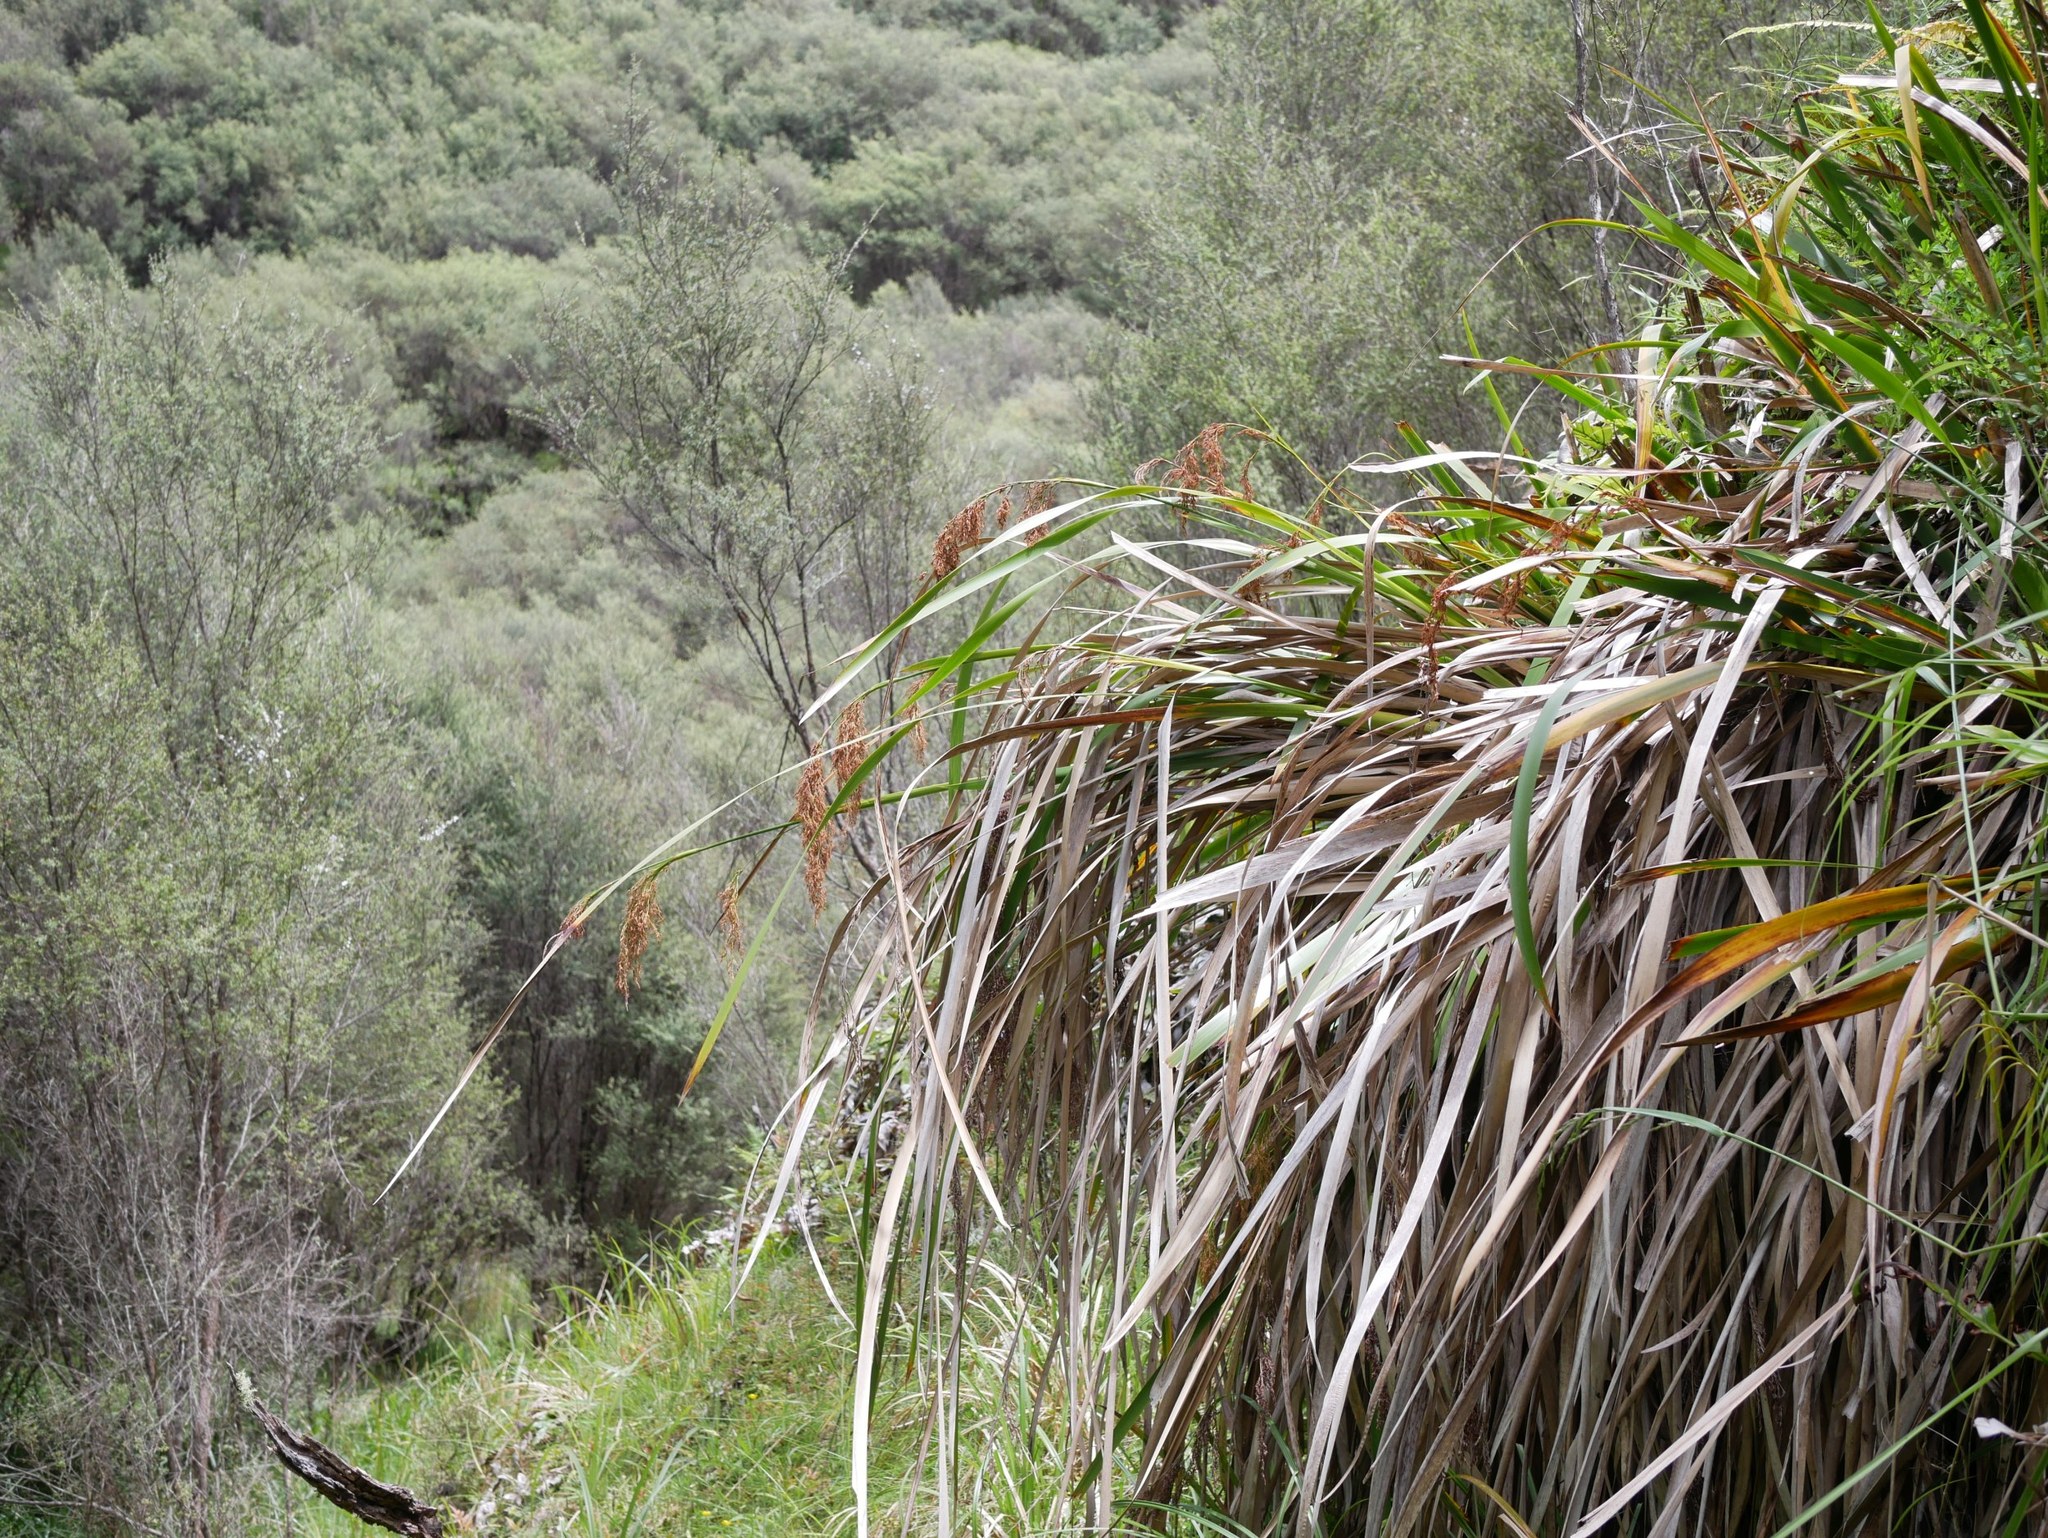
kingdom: Plantae
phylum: Tracheophyta
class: Liliopsida
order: Poales
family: Cyperaceae
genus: Machaerina
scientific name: Machaerina sinclairii
